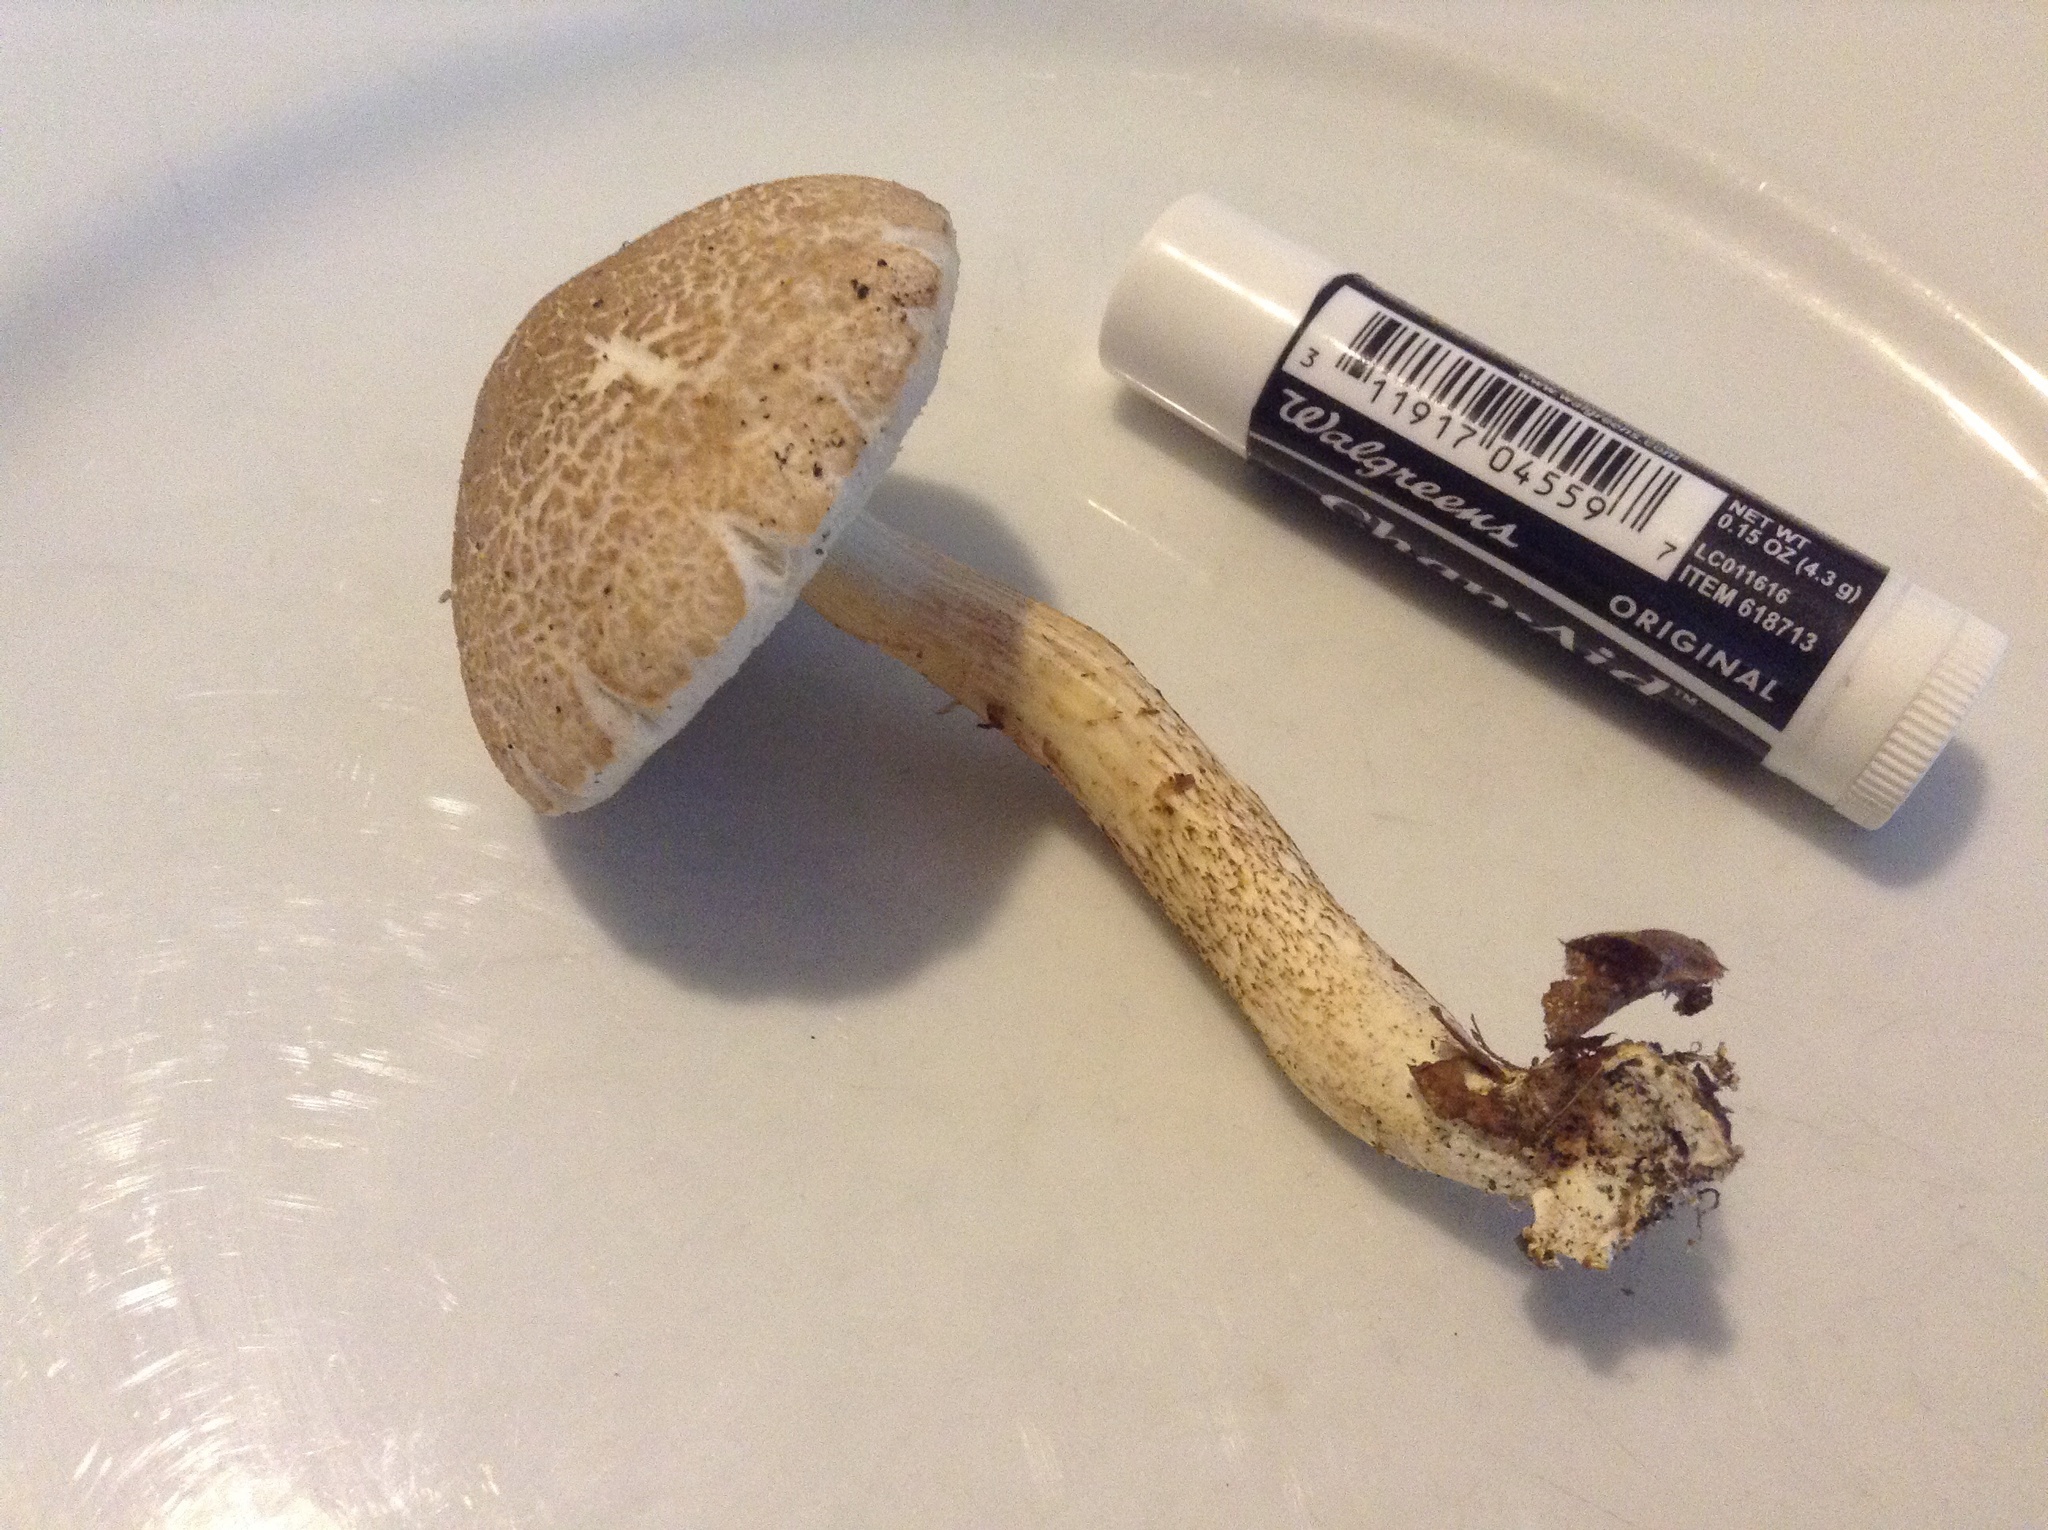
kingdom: Fungi
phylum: Basidiomycota
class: Agaricomycetes
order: Boletales
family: Boletaceae
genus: Leccinellum
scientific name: Leccinellum albellum
